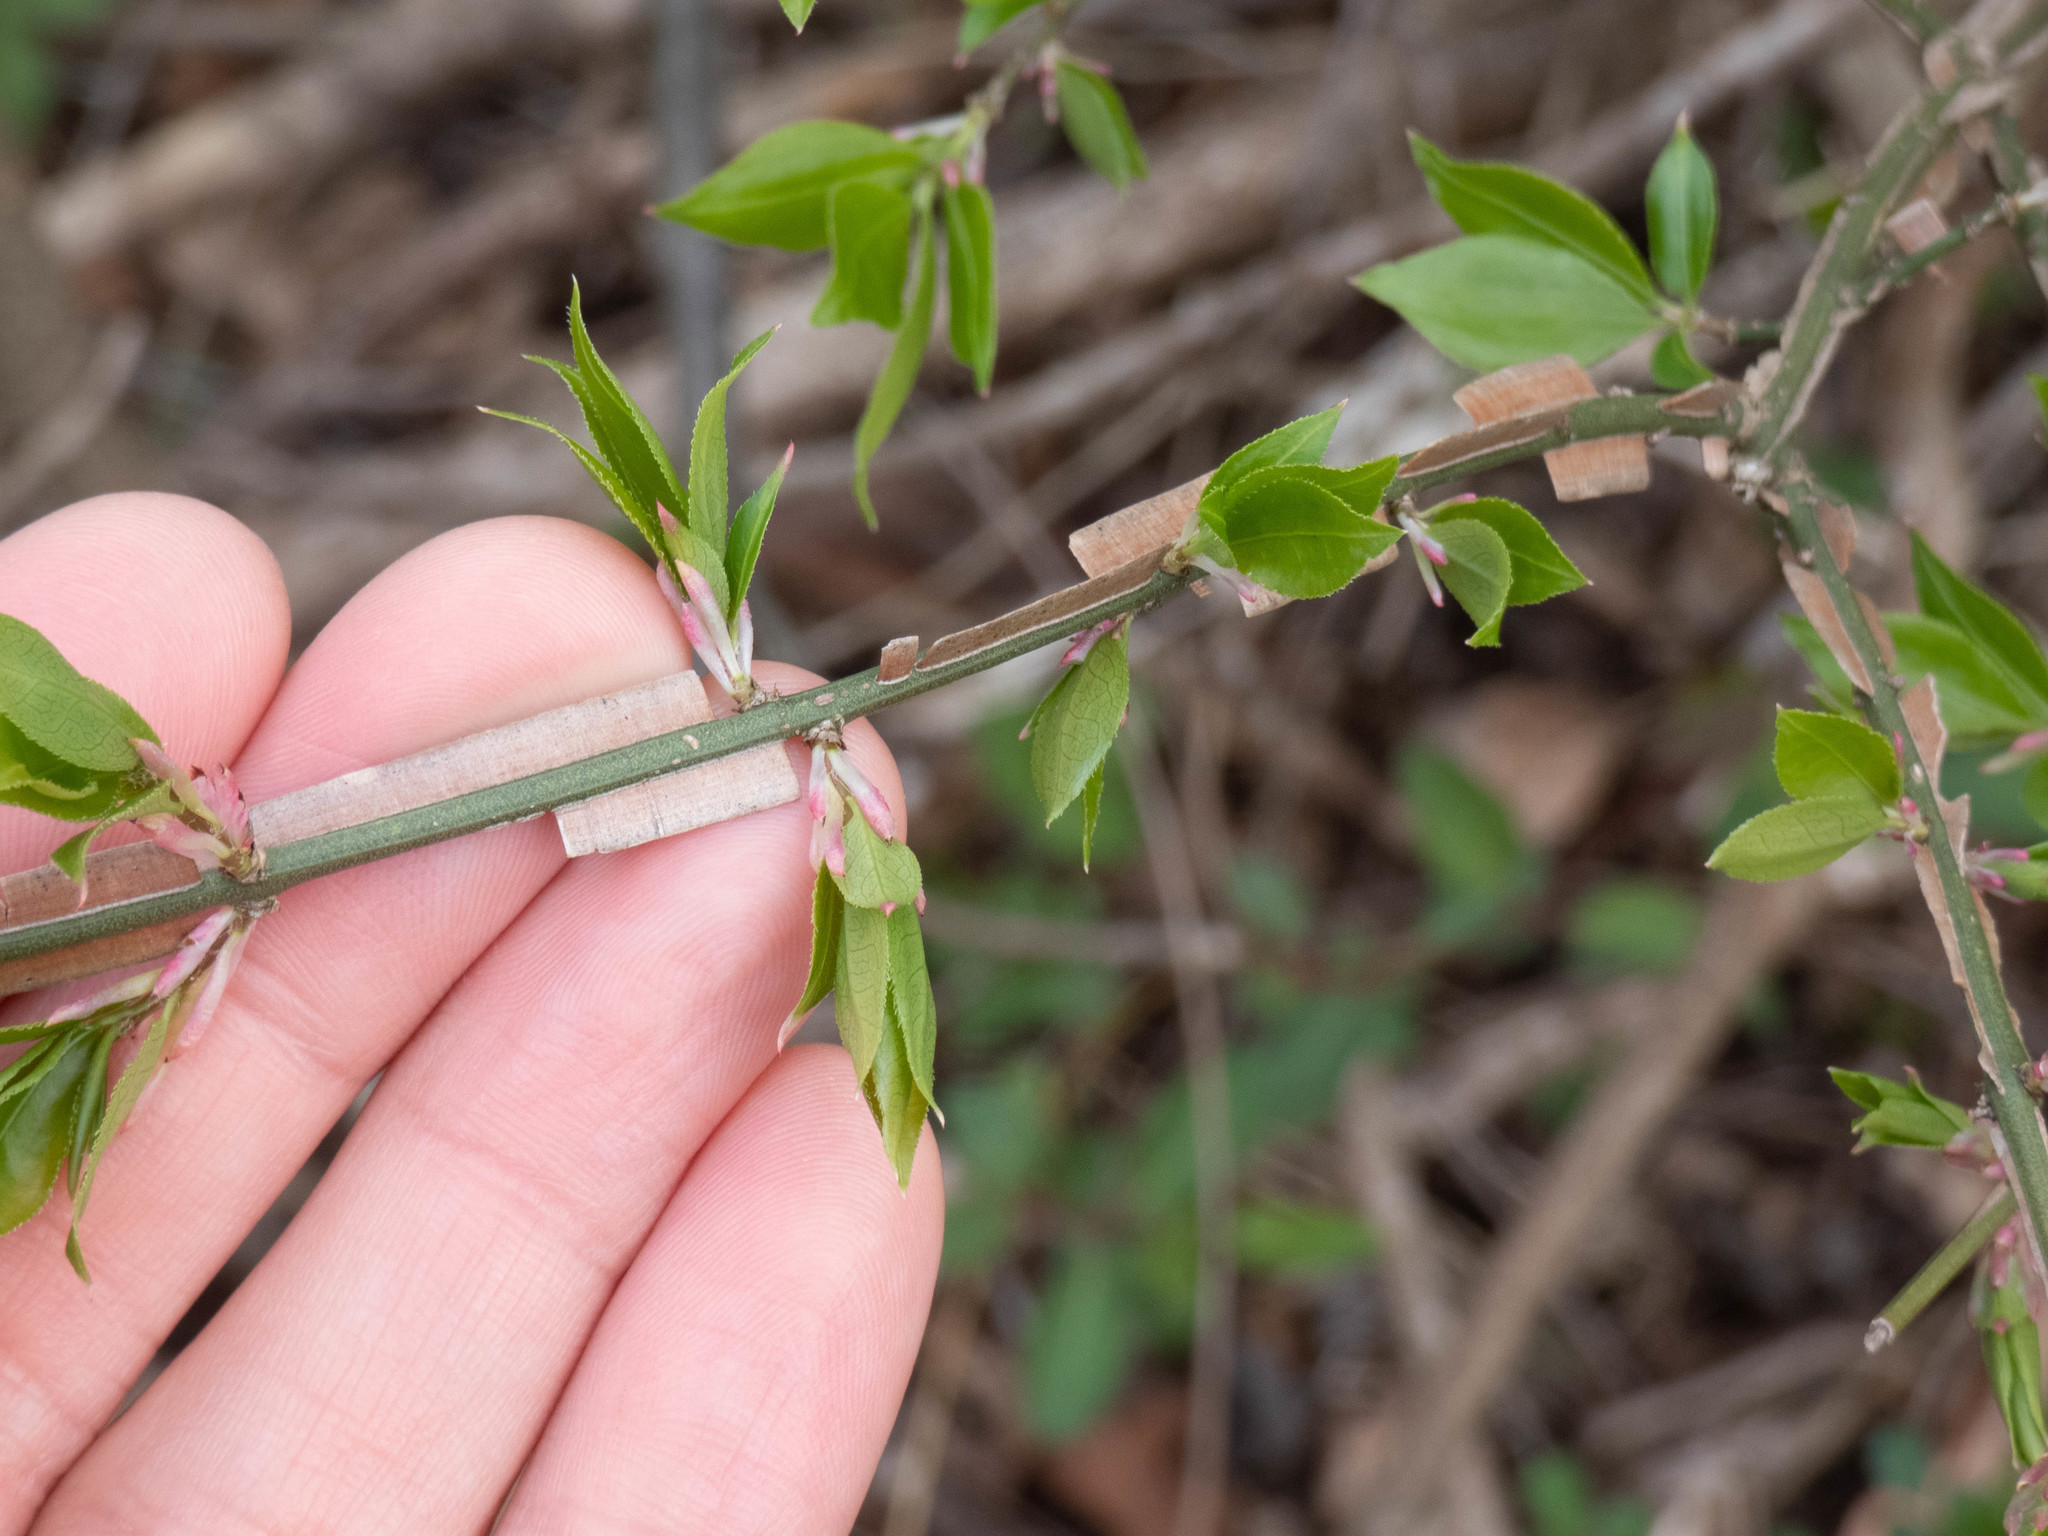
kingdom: Plantae
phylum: Tracheophyta
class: Magnoliopsida
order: Celastrales
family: Celastraceae
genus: Euonymus
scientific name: Euonymus alatus
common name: Winged euonymus
